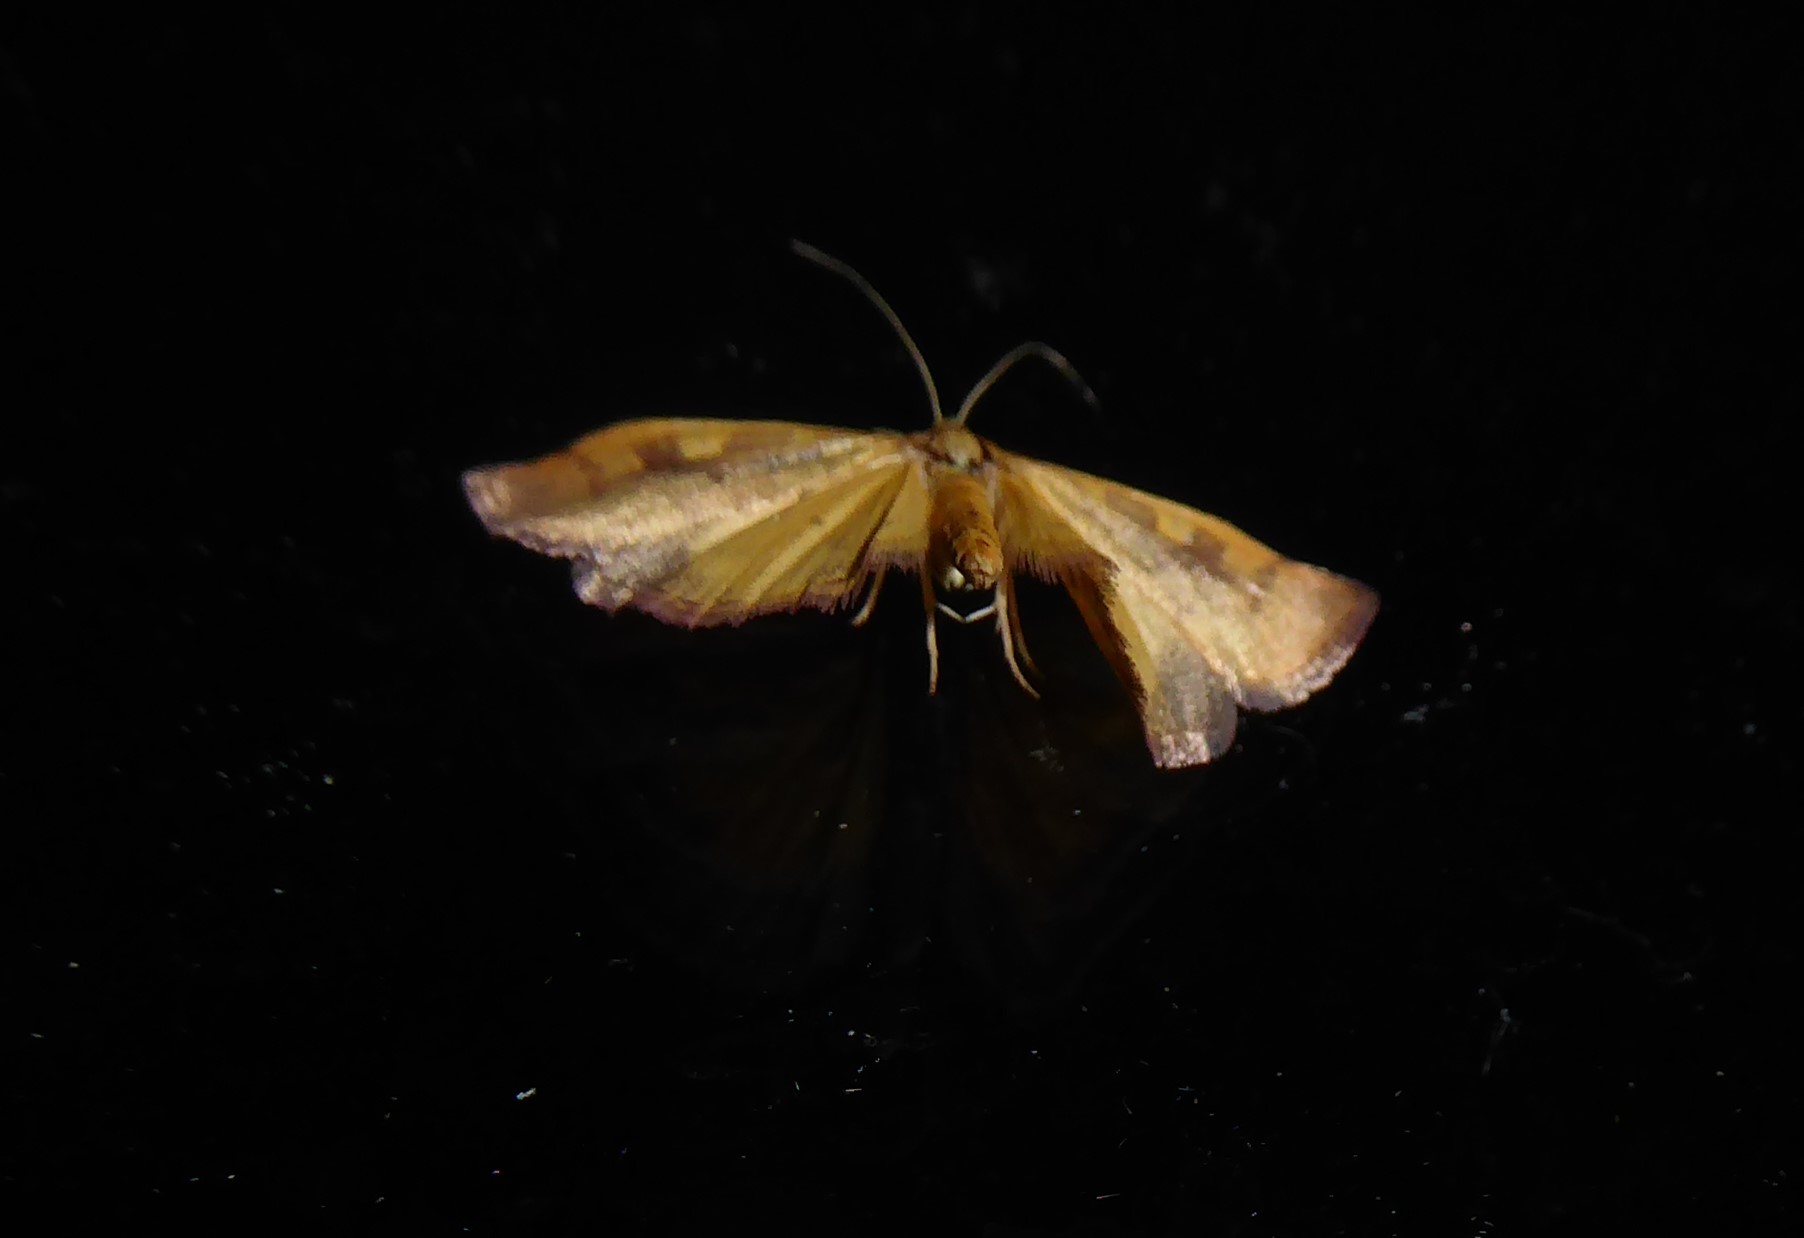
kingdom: Animalia
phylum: Arthropoda
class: Insecta
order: Lepidoptera
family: Crambidae
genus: Udea
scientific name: Udea Mnesictena flavidalis
